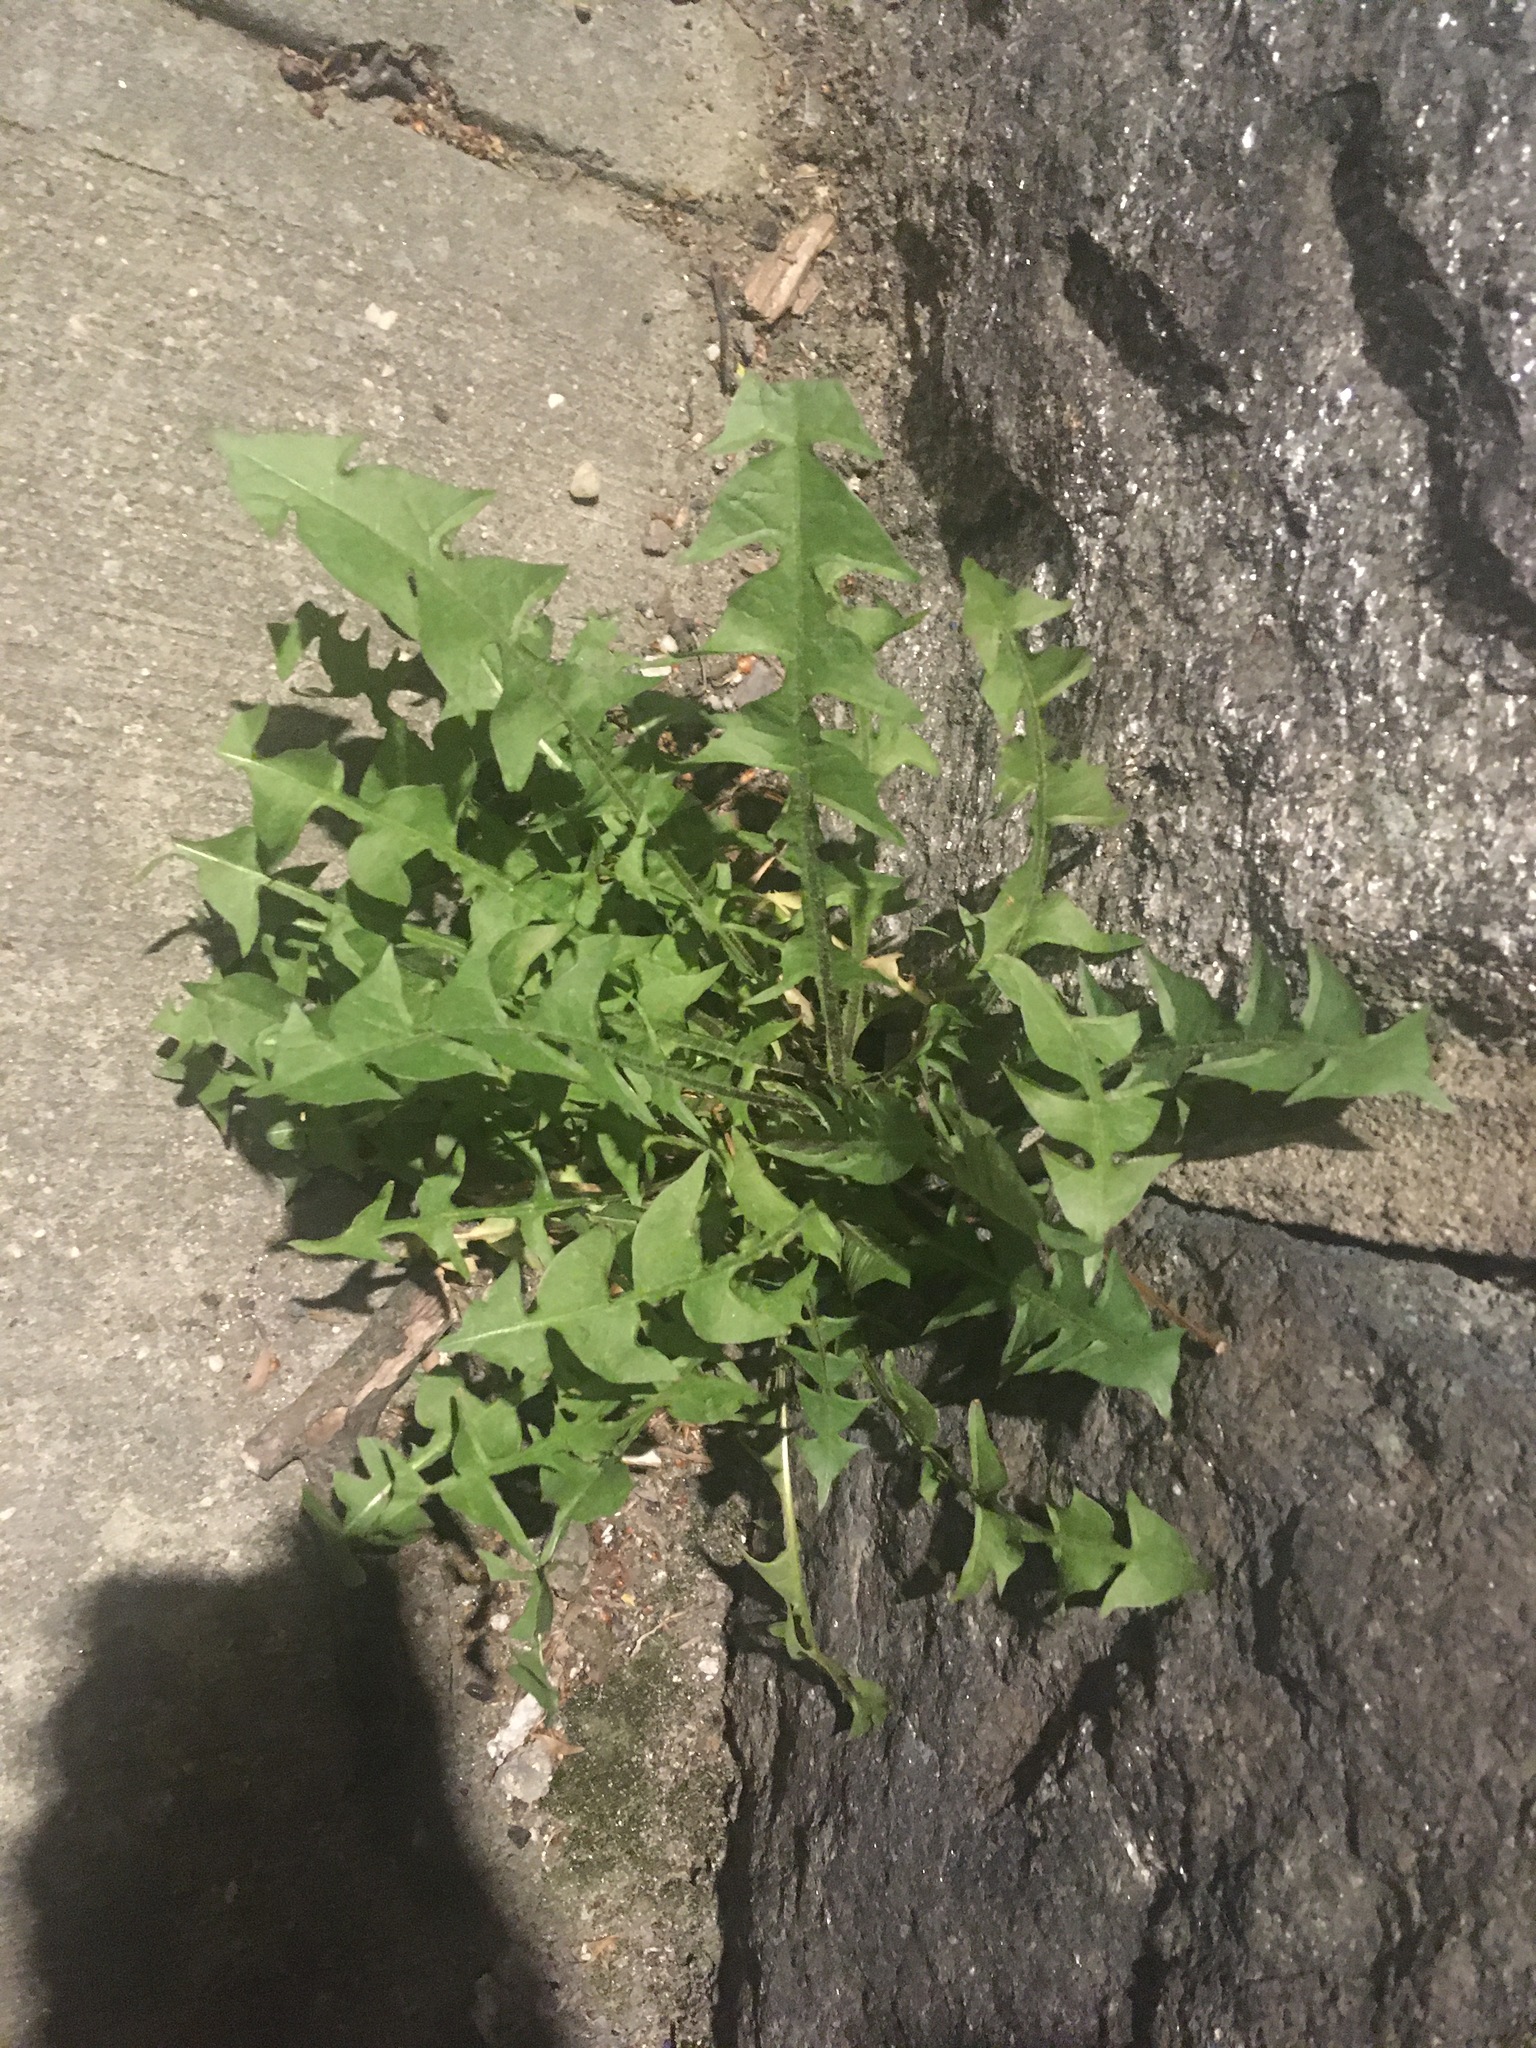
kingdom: Plantae
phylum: Tracheophyta
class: Magnoliopsida
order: Asterales
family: Asteraceae
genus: Taraxacum
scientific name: Taraxacum officinale
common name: Common dandelion
